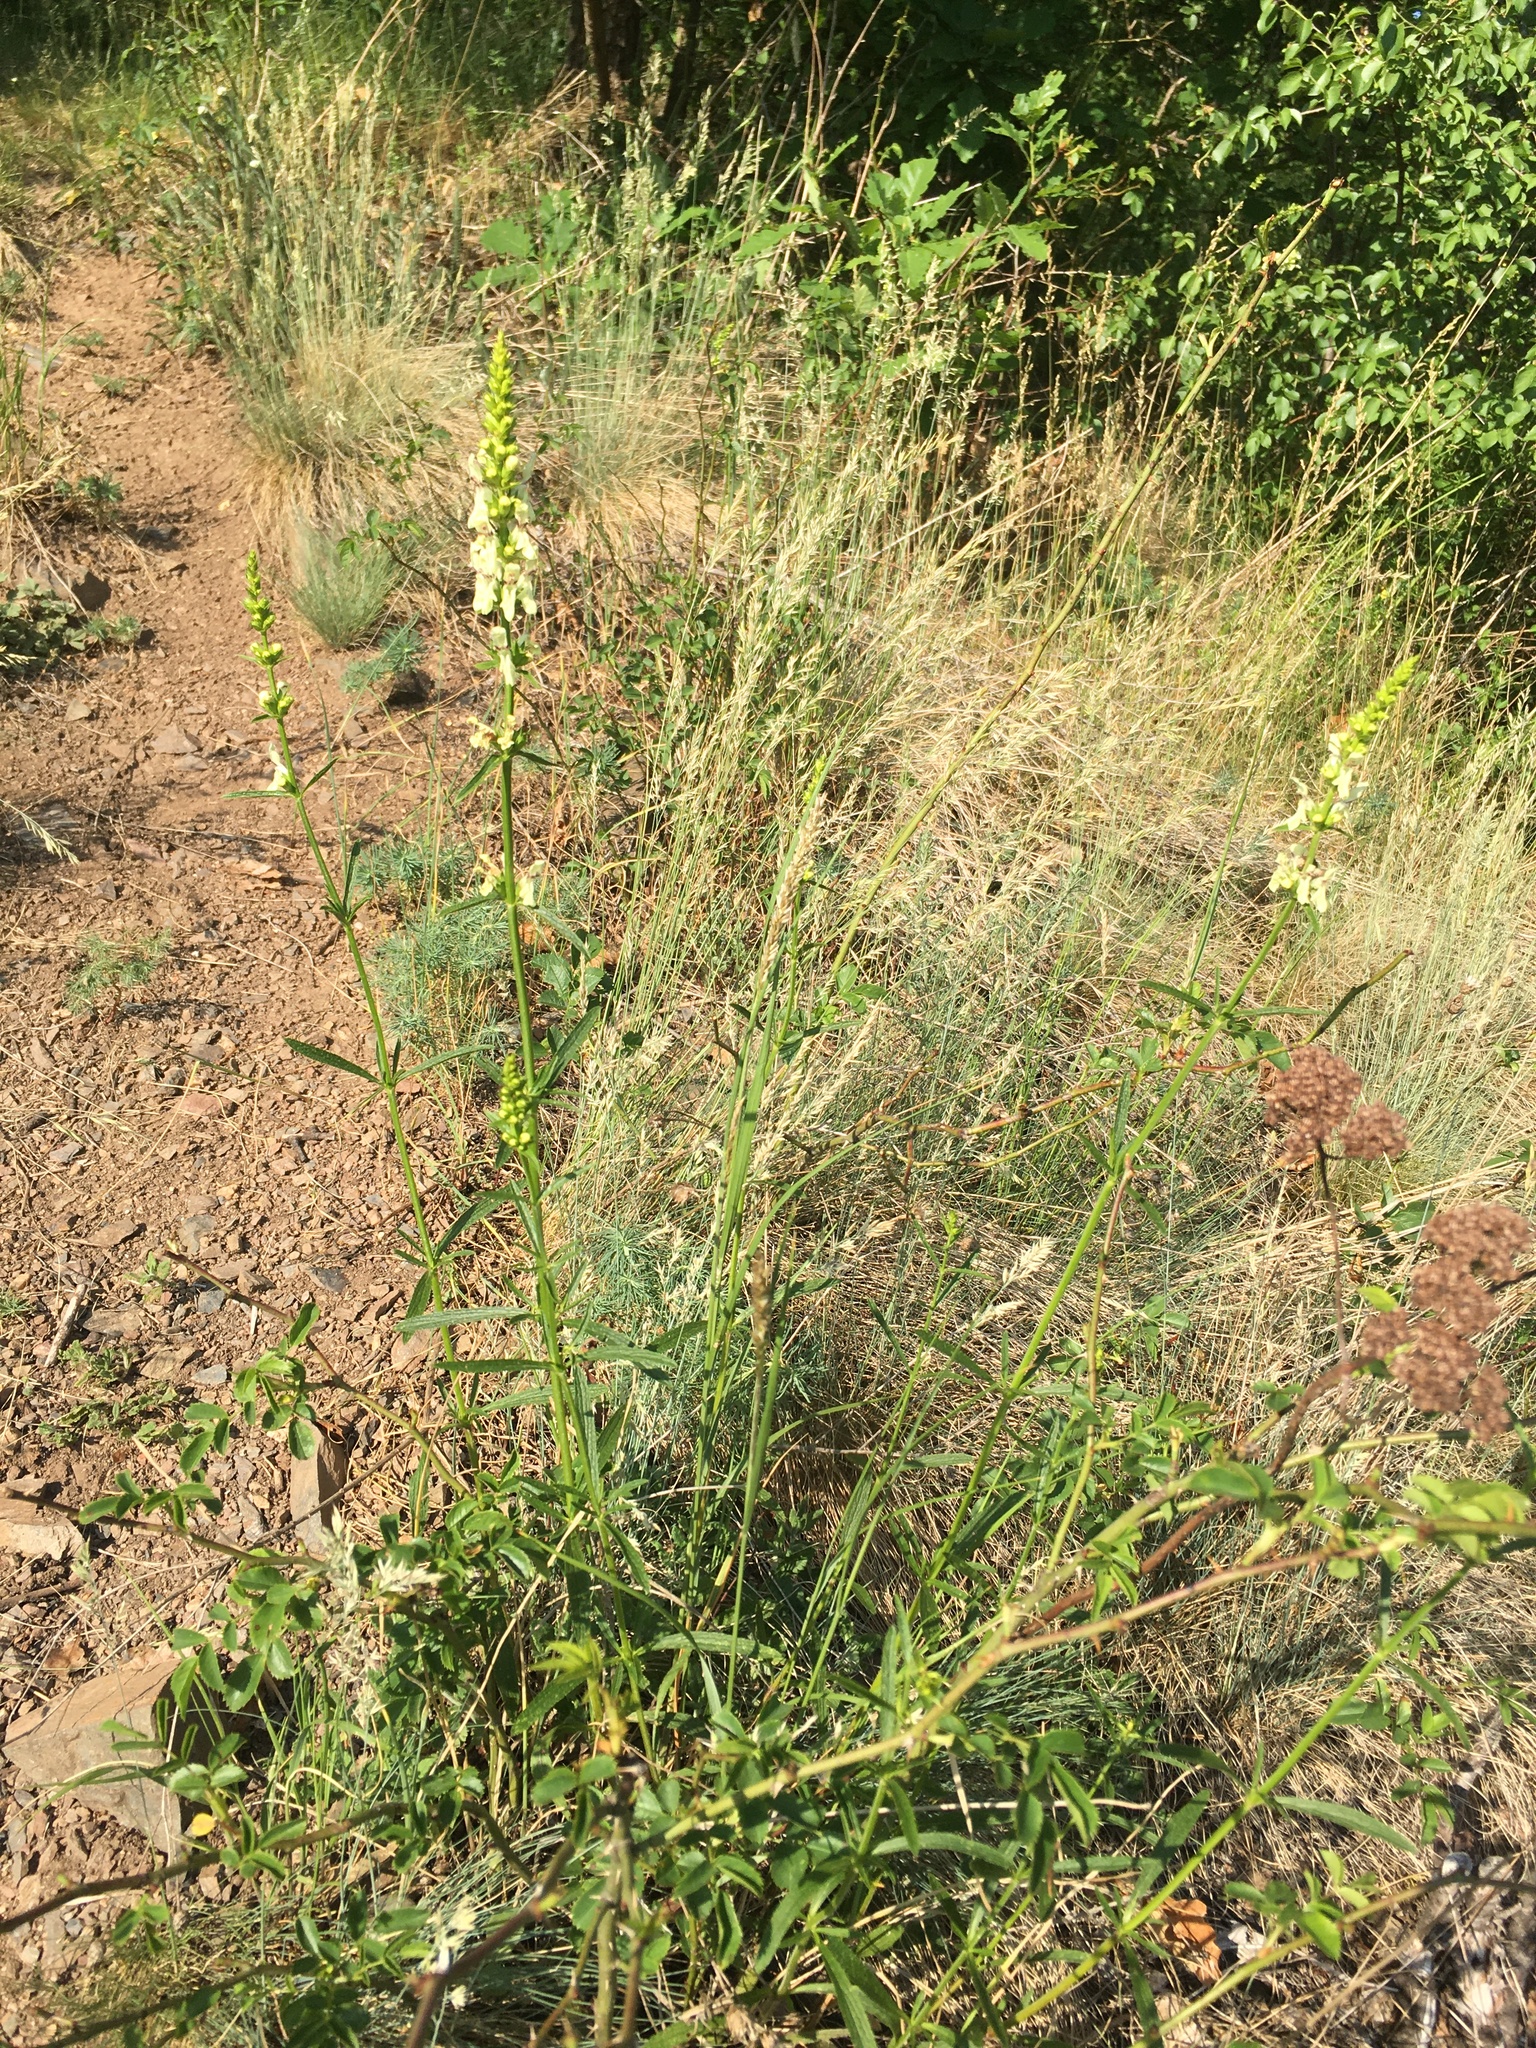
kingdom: Plantae
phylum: Tracheophyta
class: Magnoliopsida
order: Lamiales
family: Lamiaceae
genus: Stachys
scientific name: Stachys recta
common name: Perennial yellow-woundwort
